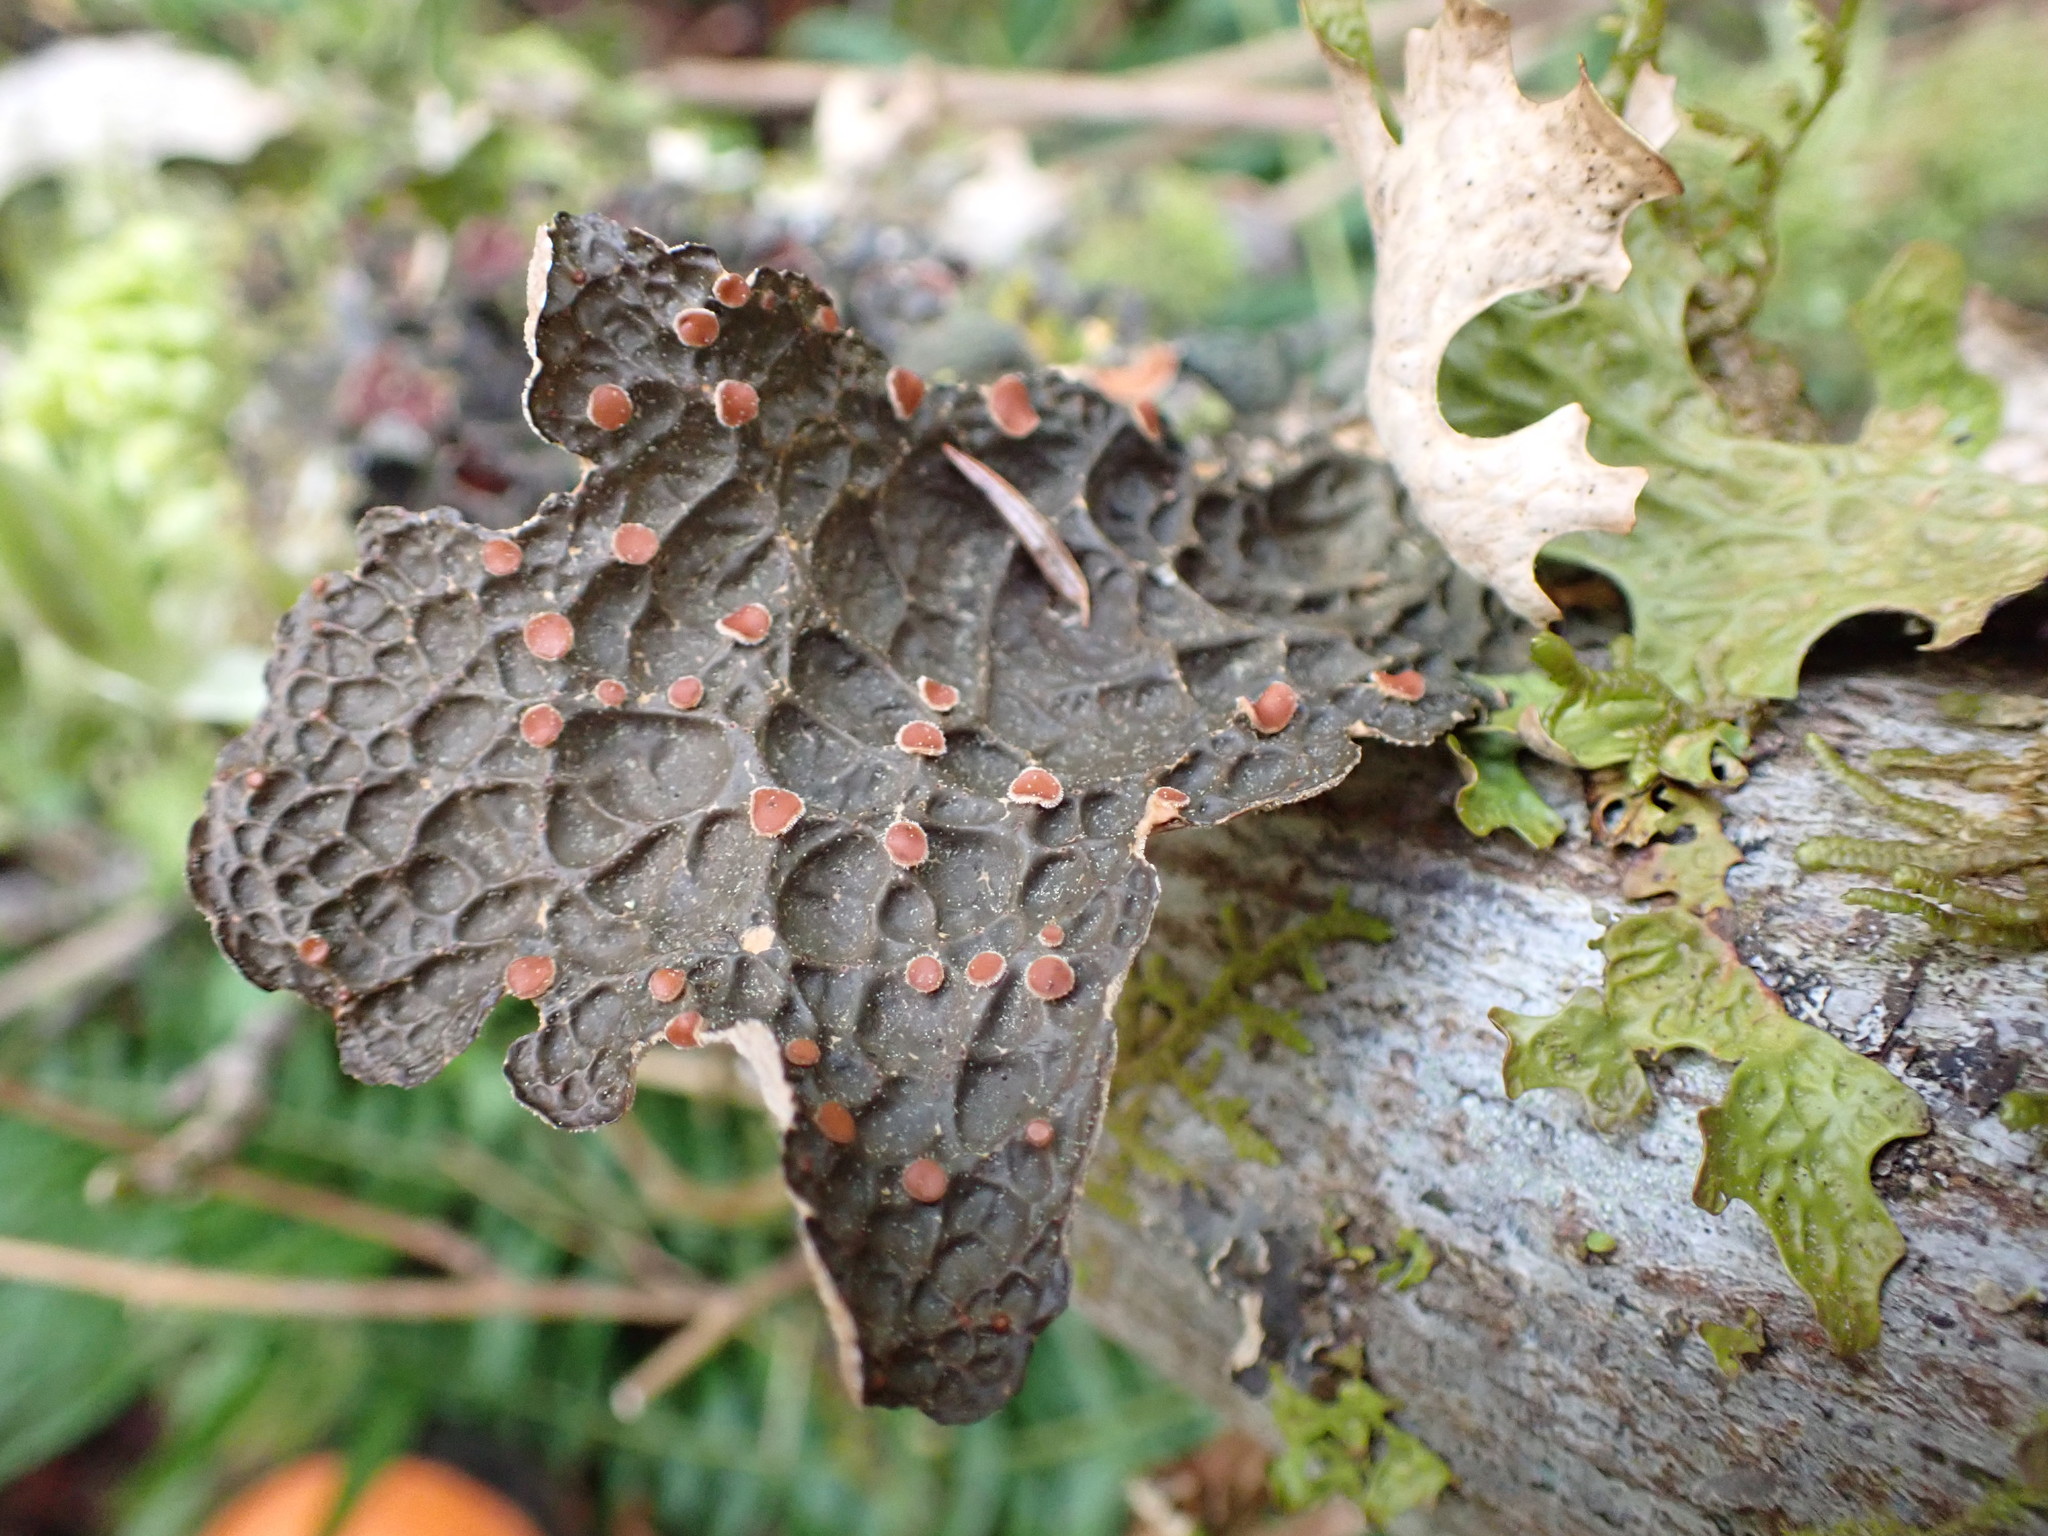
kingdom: Fungi
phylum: Ascomycota
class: Lecanoromycetes
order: Peltigerales
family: Lobariaceae
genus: Lobaria
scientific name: Lobaria anthraspis
